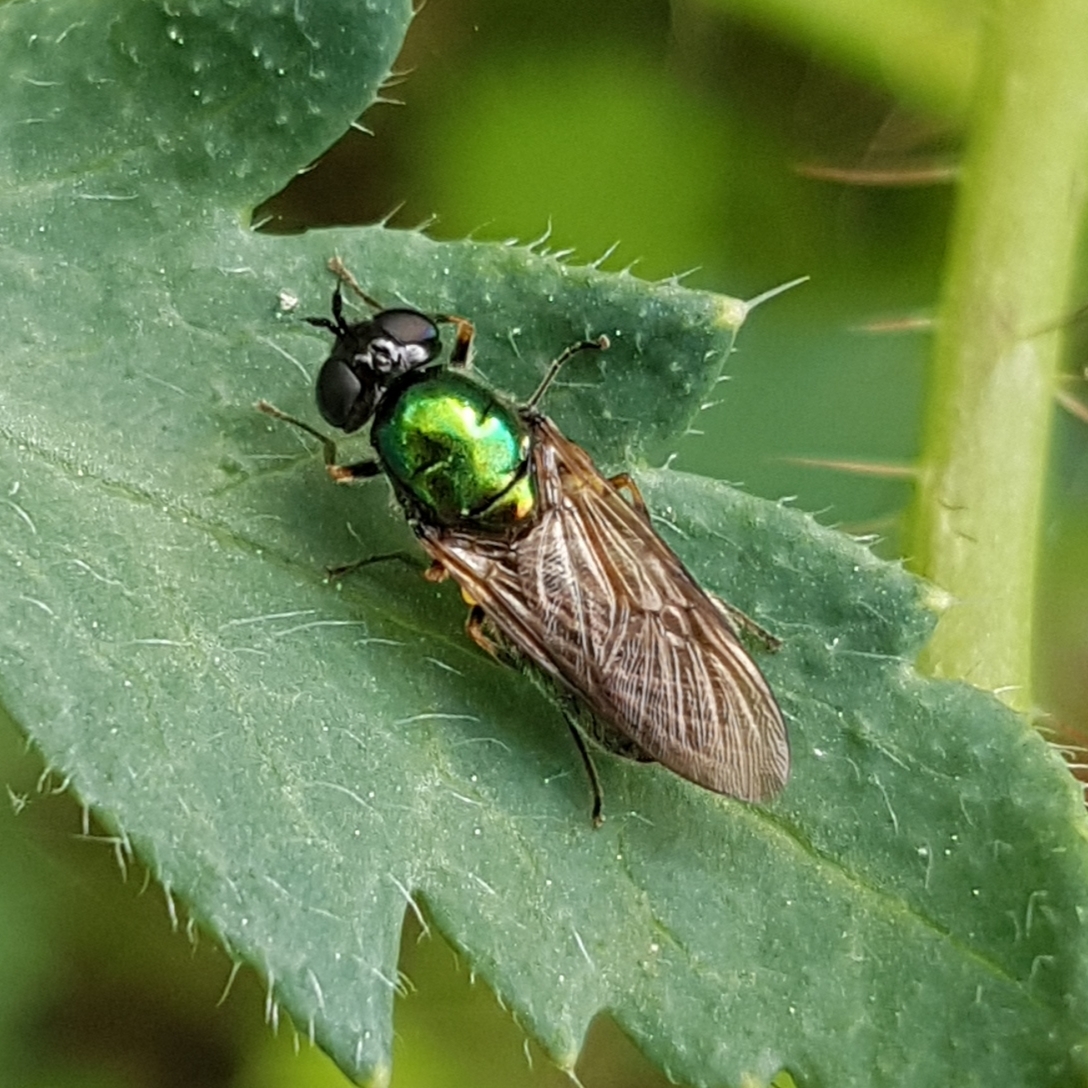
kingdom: Animalia
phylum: Arthropoda
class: Insecta
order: Diptera
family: Stratiomyidae
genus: Chloromyia
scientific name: Chloromyia formosa
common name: Soldier fly
